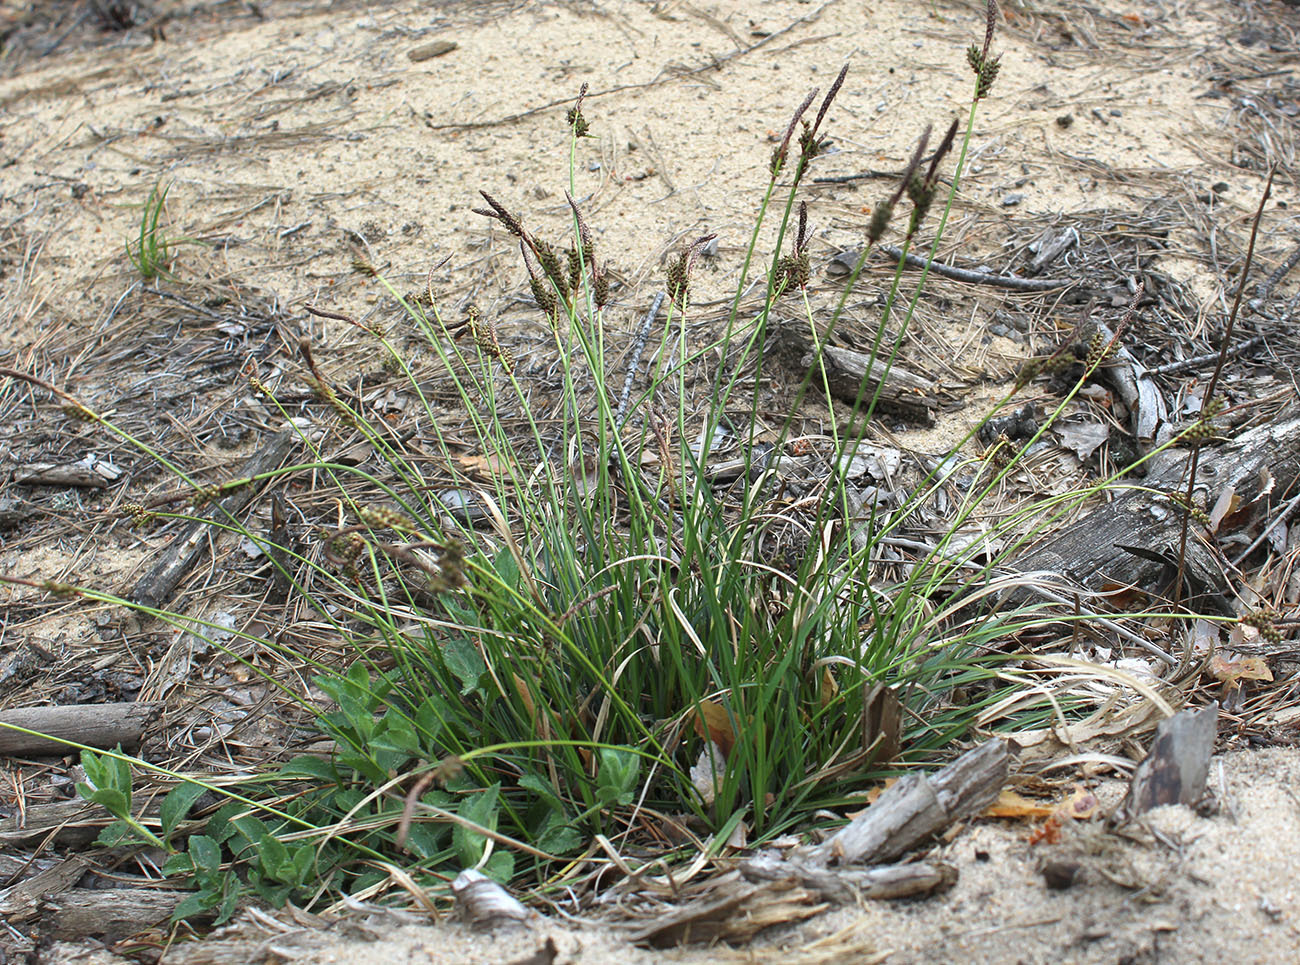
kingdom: Plantae
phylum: Tracheophyta
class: Liliopsida
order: Poales
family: Cyperaceae
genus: Carex
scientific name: Carex ericetorum
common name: Rare spring-sedge
